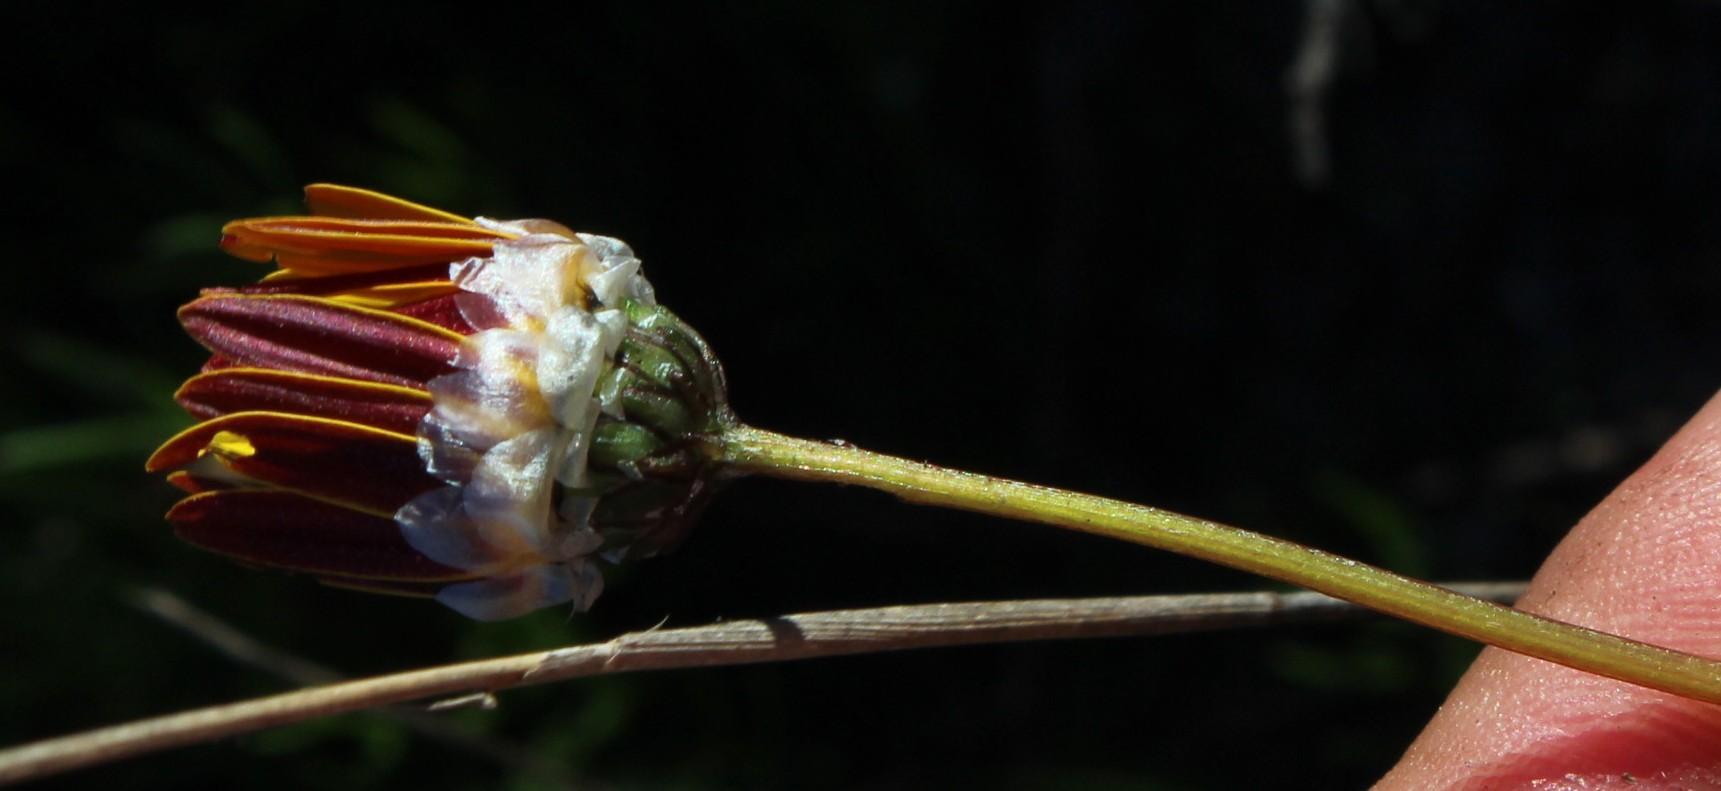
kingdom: Plantae
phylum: Tracheophyta
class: Magnoliopsida
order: Asterales
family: Asteraceae
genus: Ursinia
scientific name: Ursinia nudicaulis
